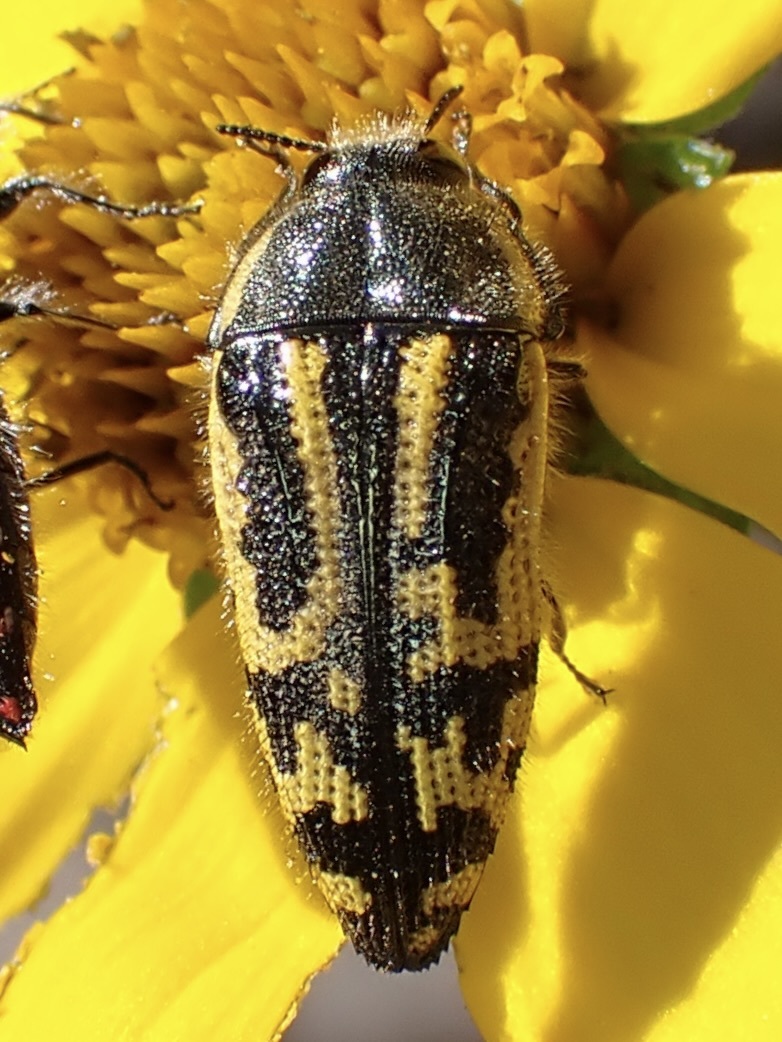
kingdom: Animalia
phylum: Arthropoda
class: Insecta
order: Coleoptera
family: Buprestidae
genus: Acmaeodera
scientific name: Acmaeodera amplicollis
